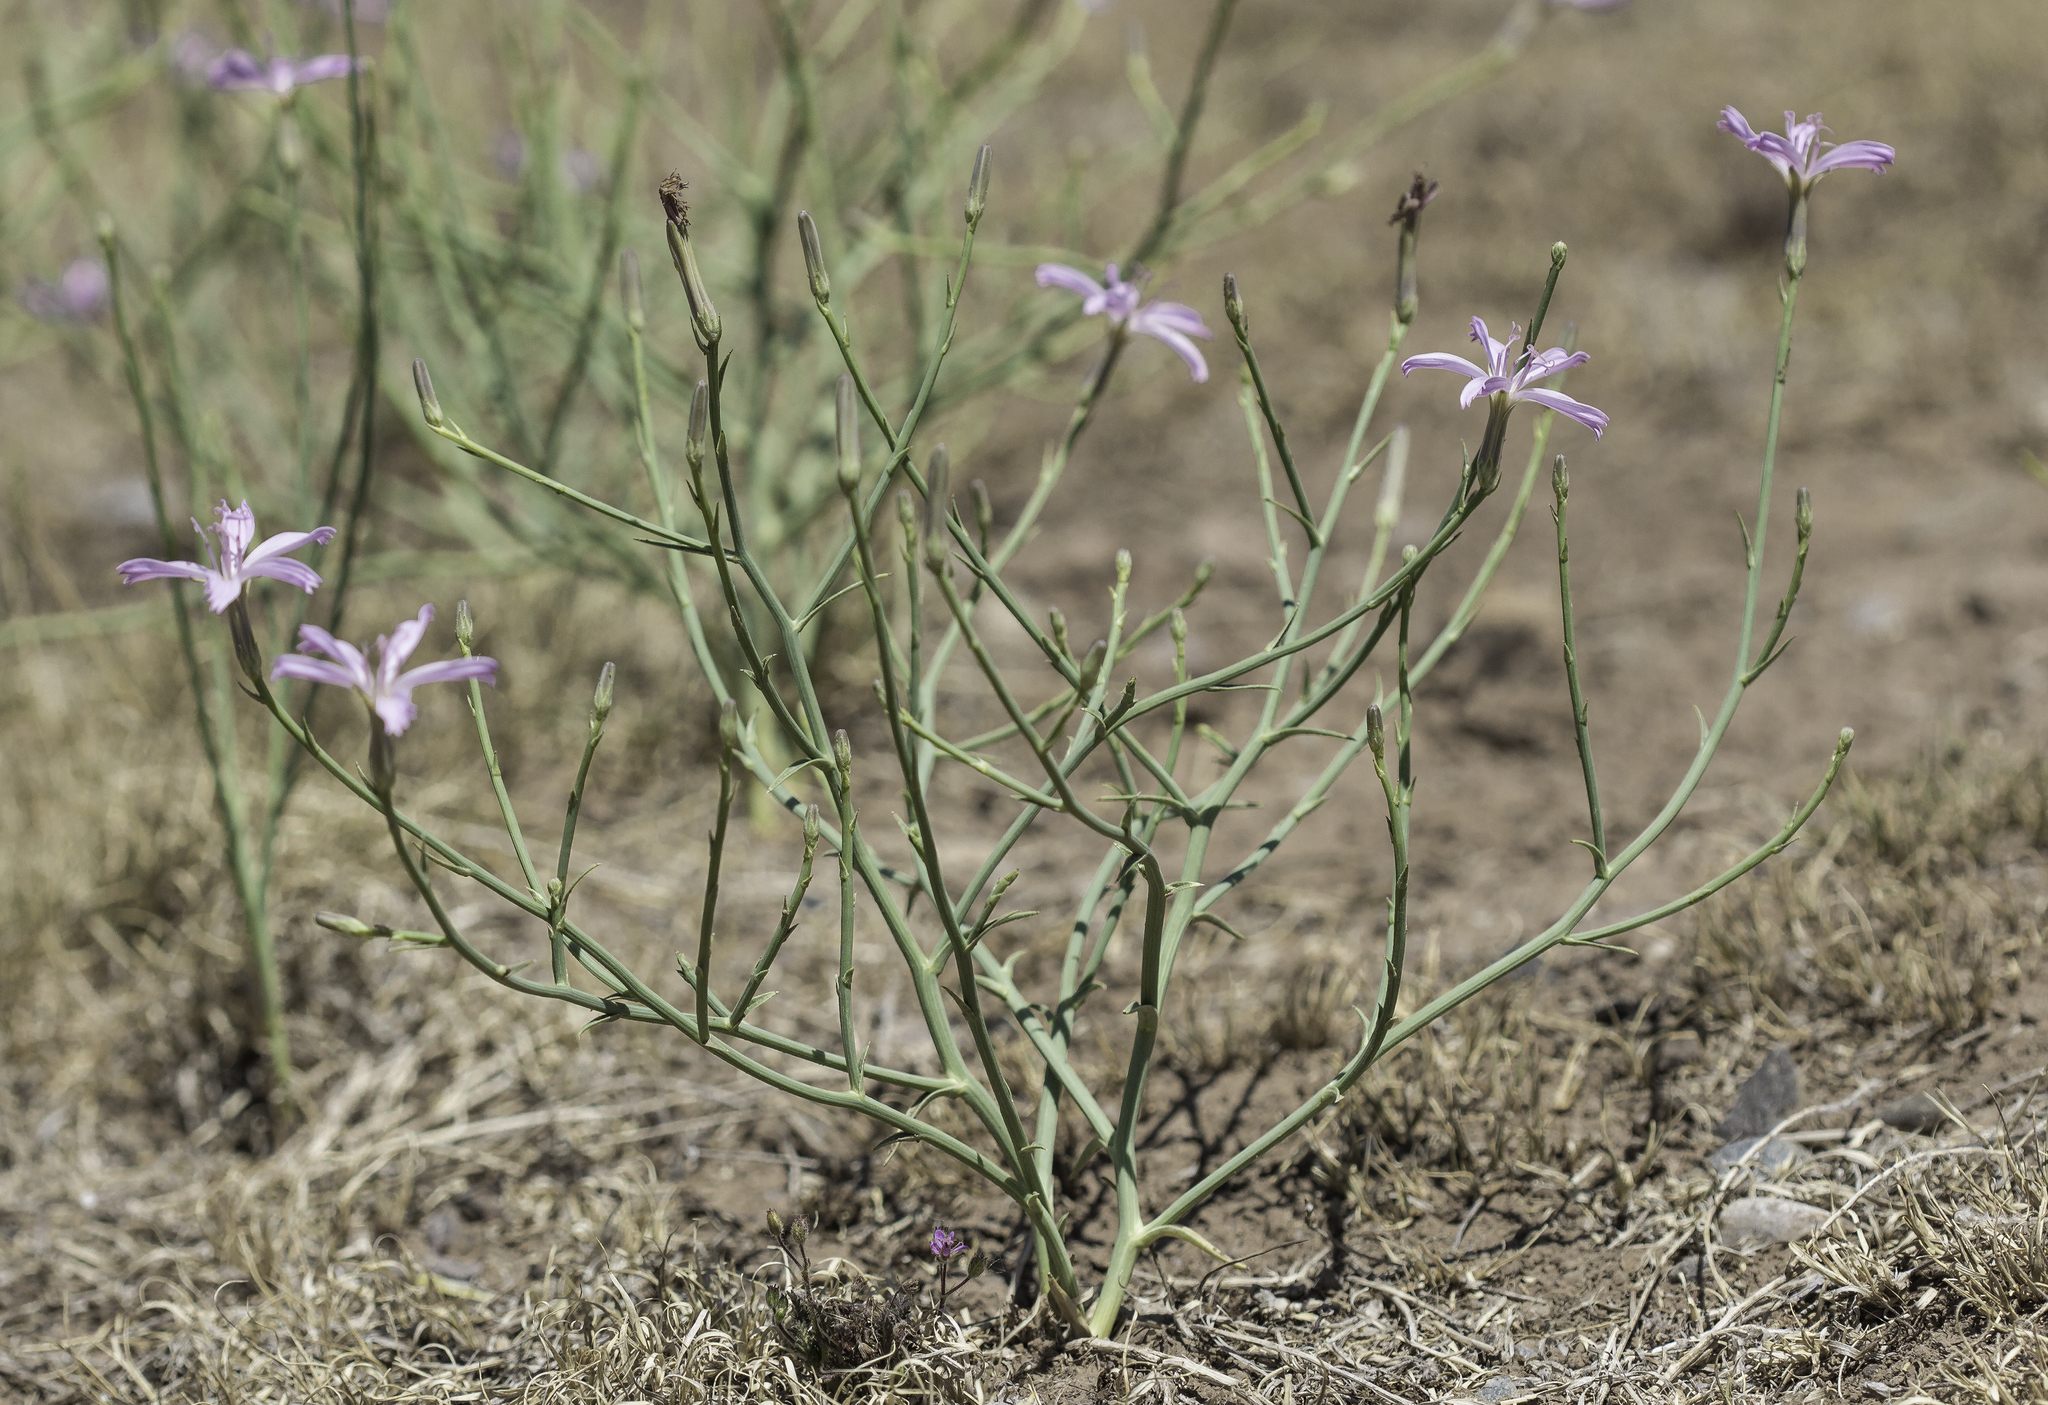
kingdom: Plantae
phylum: Tracheophyta
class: Magnoliopsida
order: Asterales
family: Asteraceae
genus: Lygodesmia
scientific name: Lygodesmia juncea
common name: Common skeletonweed
